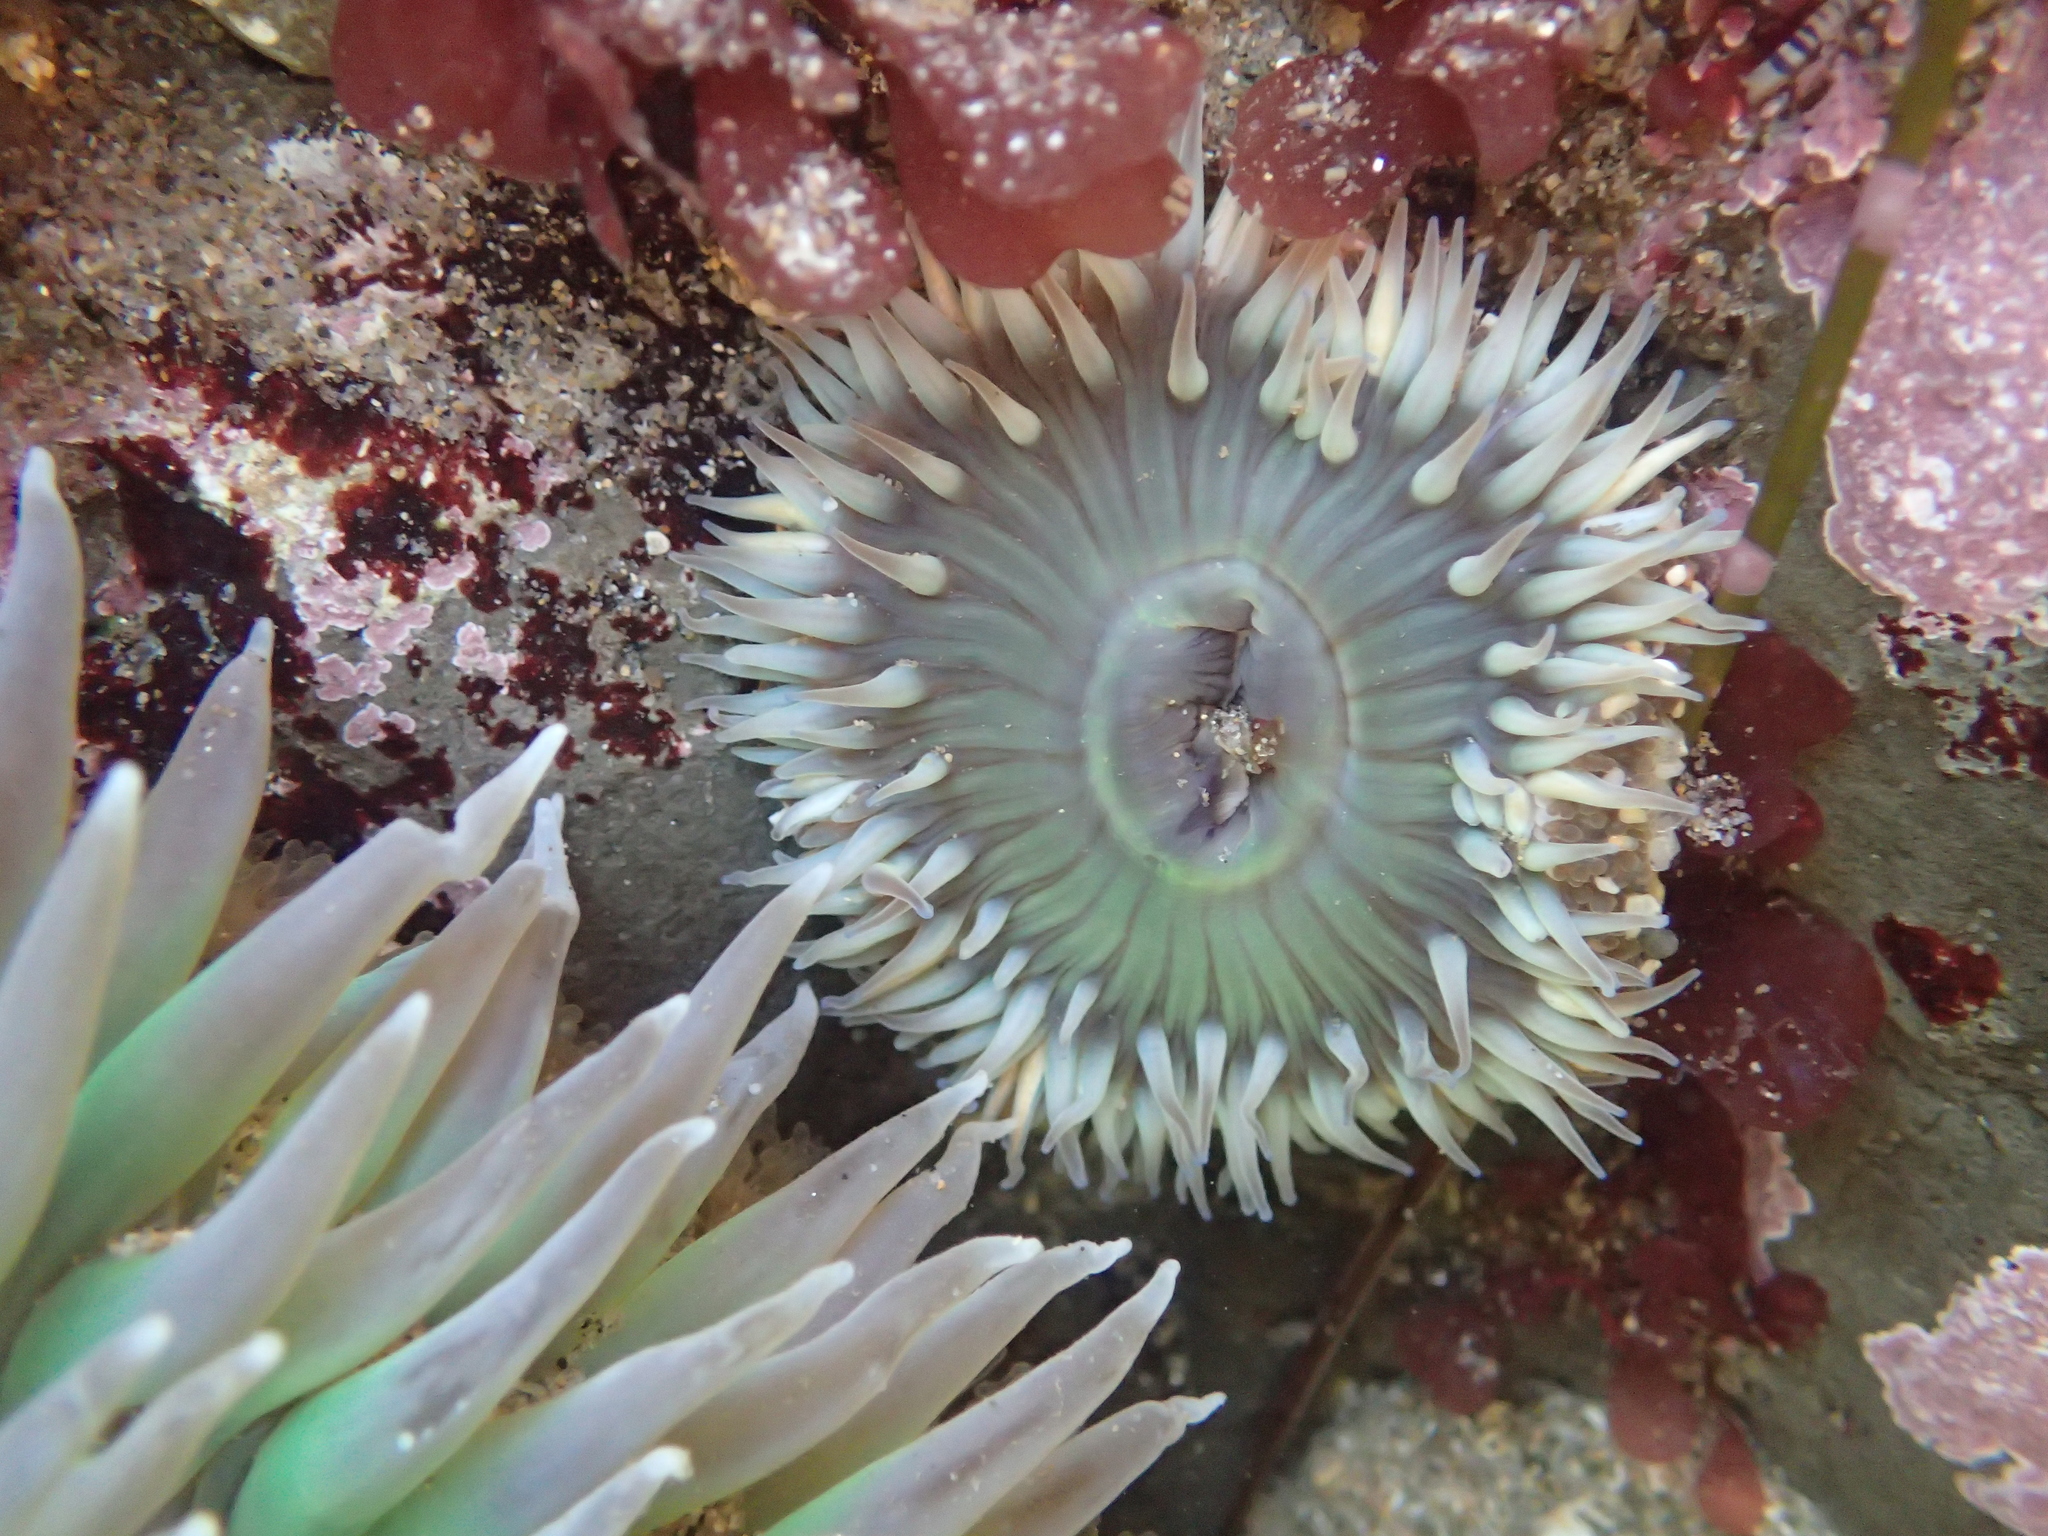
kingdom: Animalia
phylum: Cnidaria
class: Anthozoa
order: Actiniaria
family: Actiniidae
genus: Anthopleura
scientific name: Anthopleura sola
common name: Sun anemone
